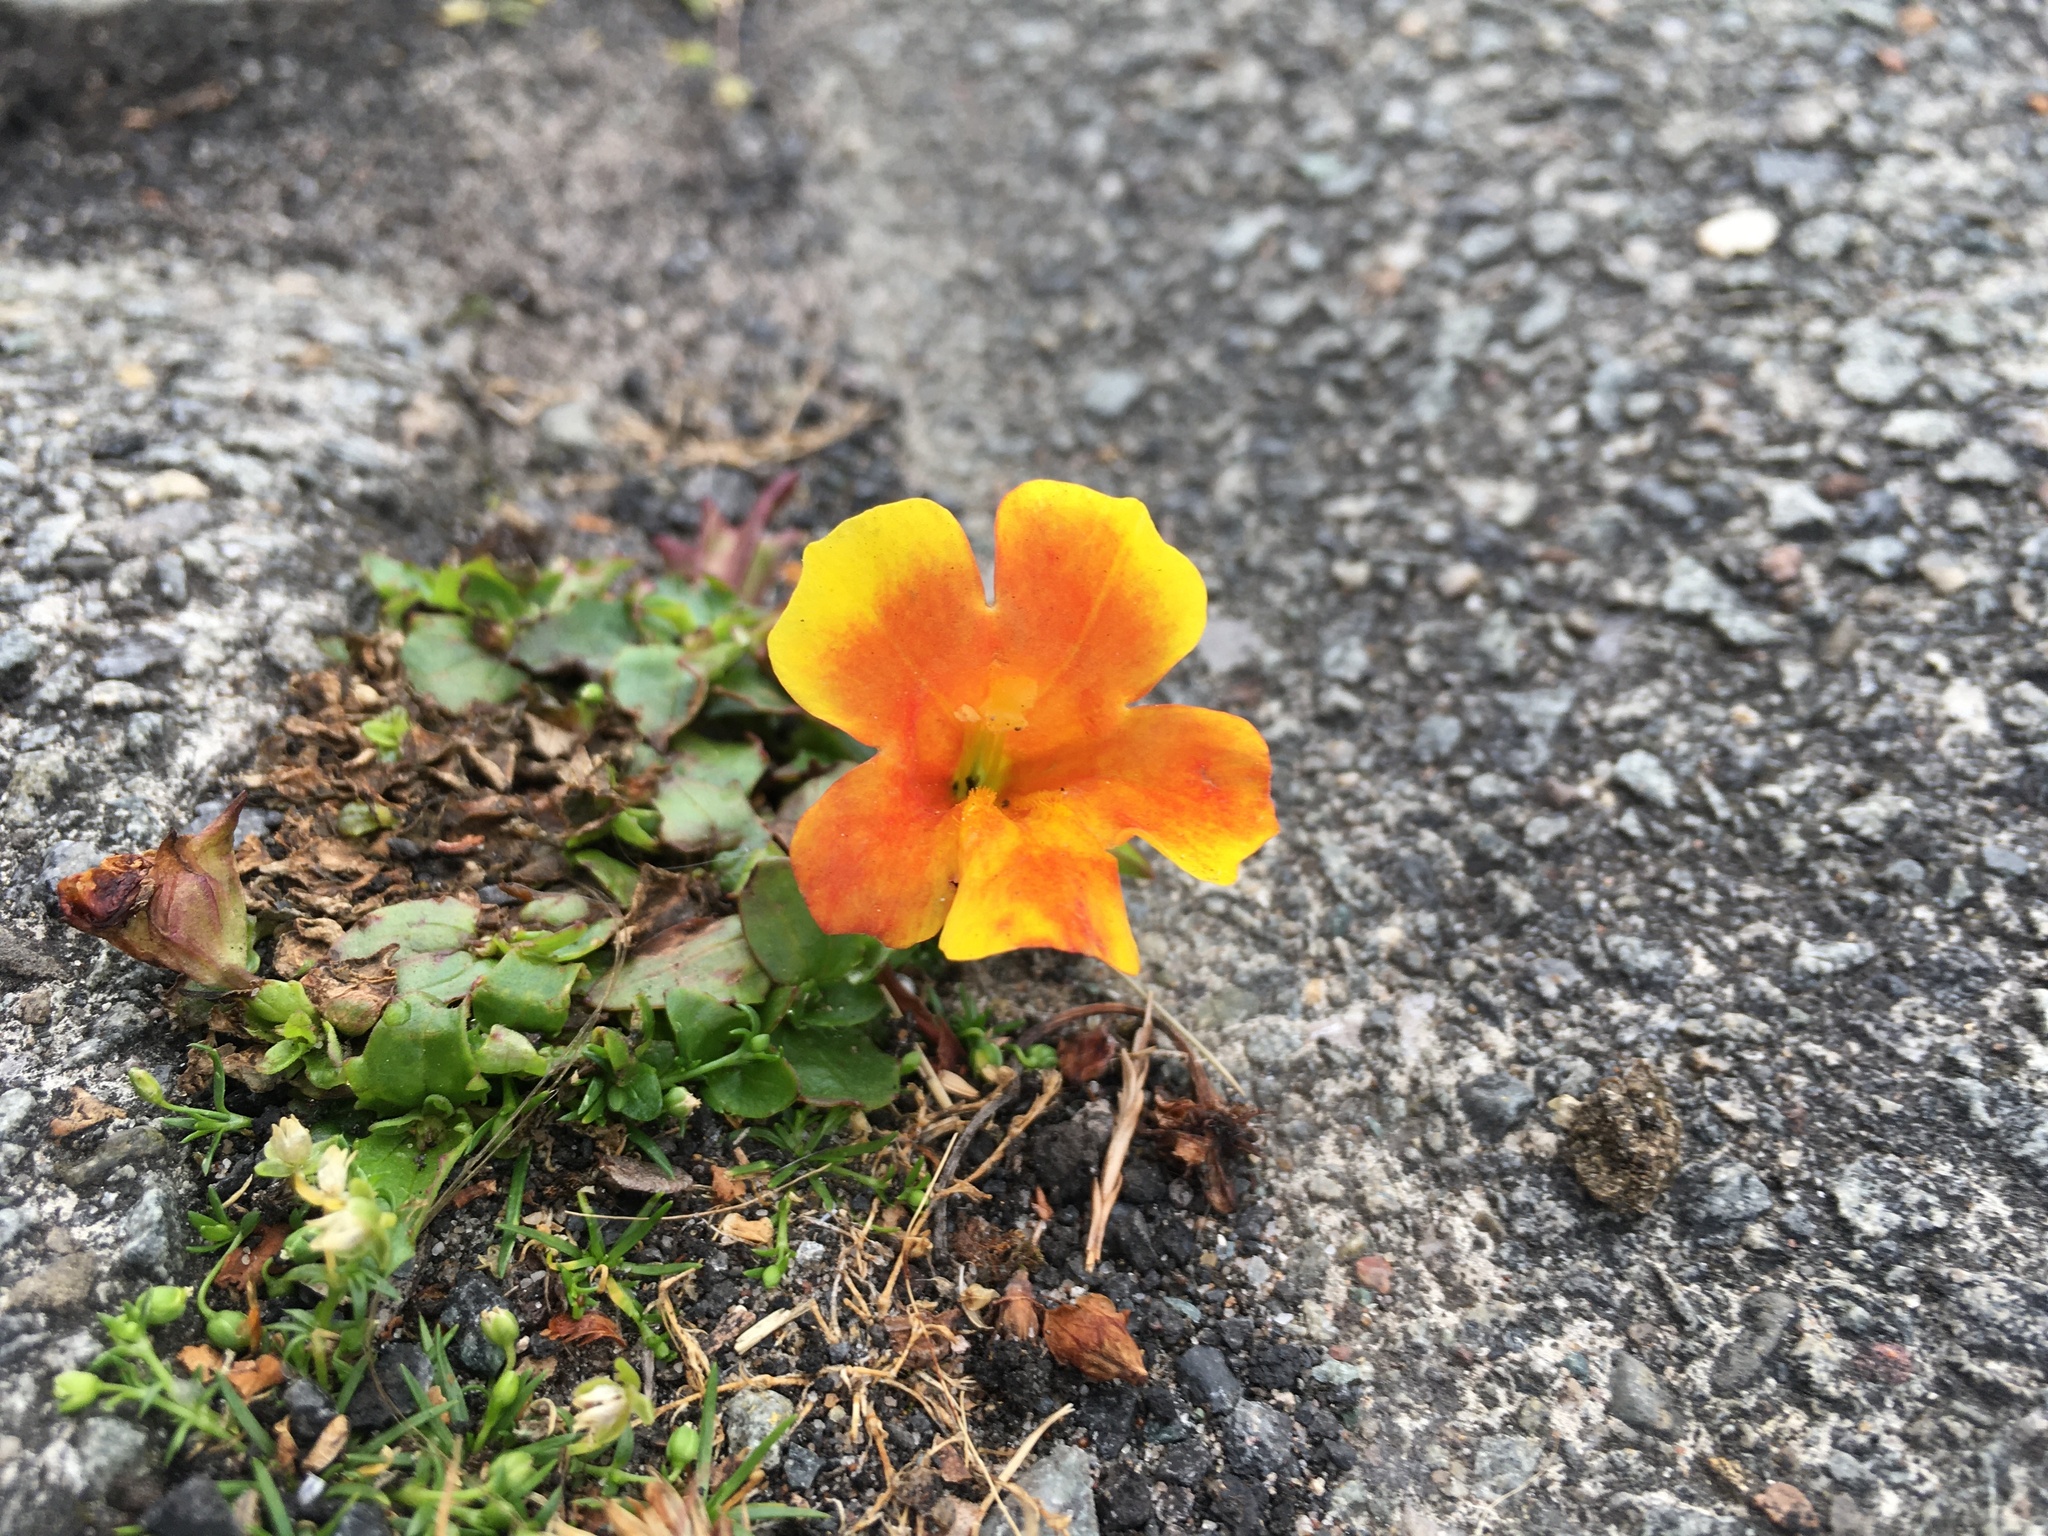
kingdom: Plantae
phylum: Tracheophyta
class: Magnoliopsida
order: Brassicales
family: Tropaeolaceae
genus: Tropaeolum
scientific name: Tropaeolum majus
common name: Nasturtium
